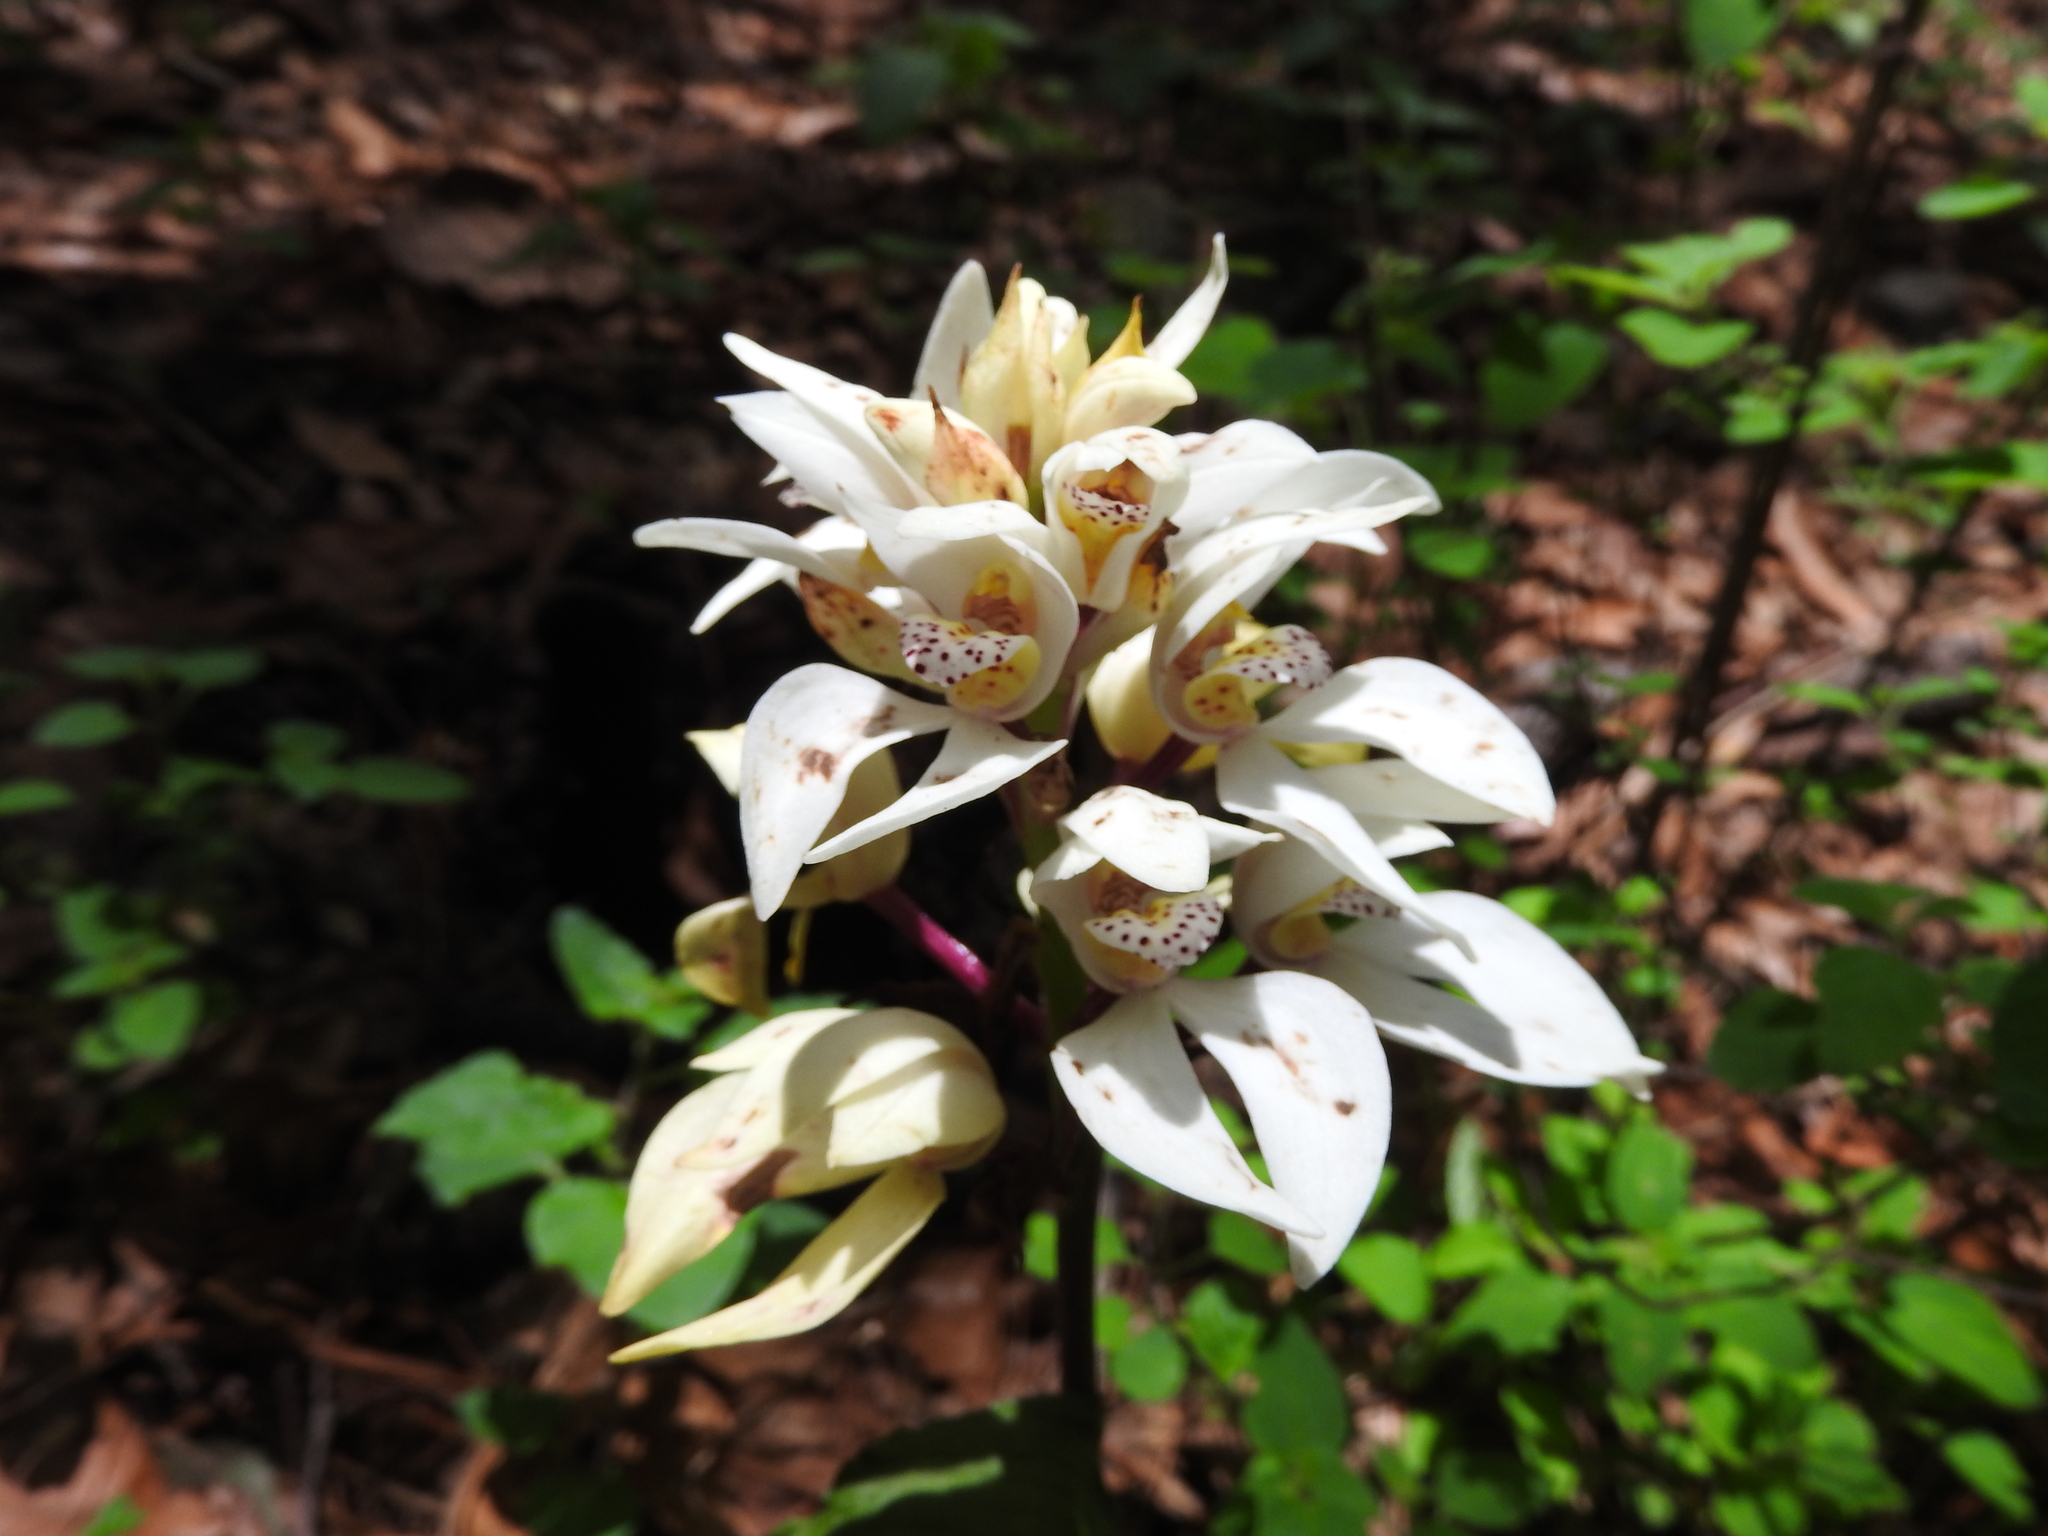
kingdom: Plantae
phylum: Tracheophyta
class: Liliopsida
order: Asparagales
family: Orchidaceae
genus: Govenia
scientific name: Govenia capitata
